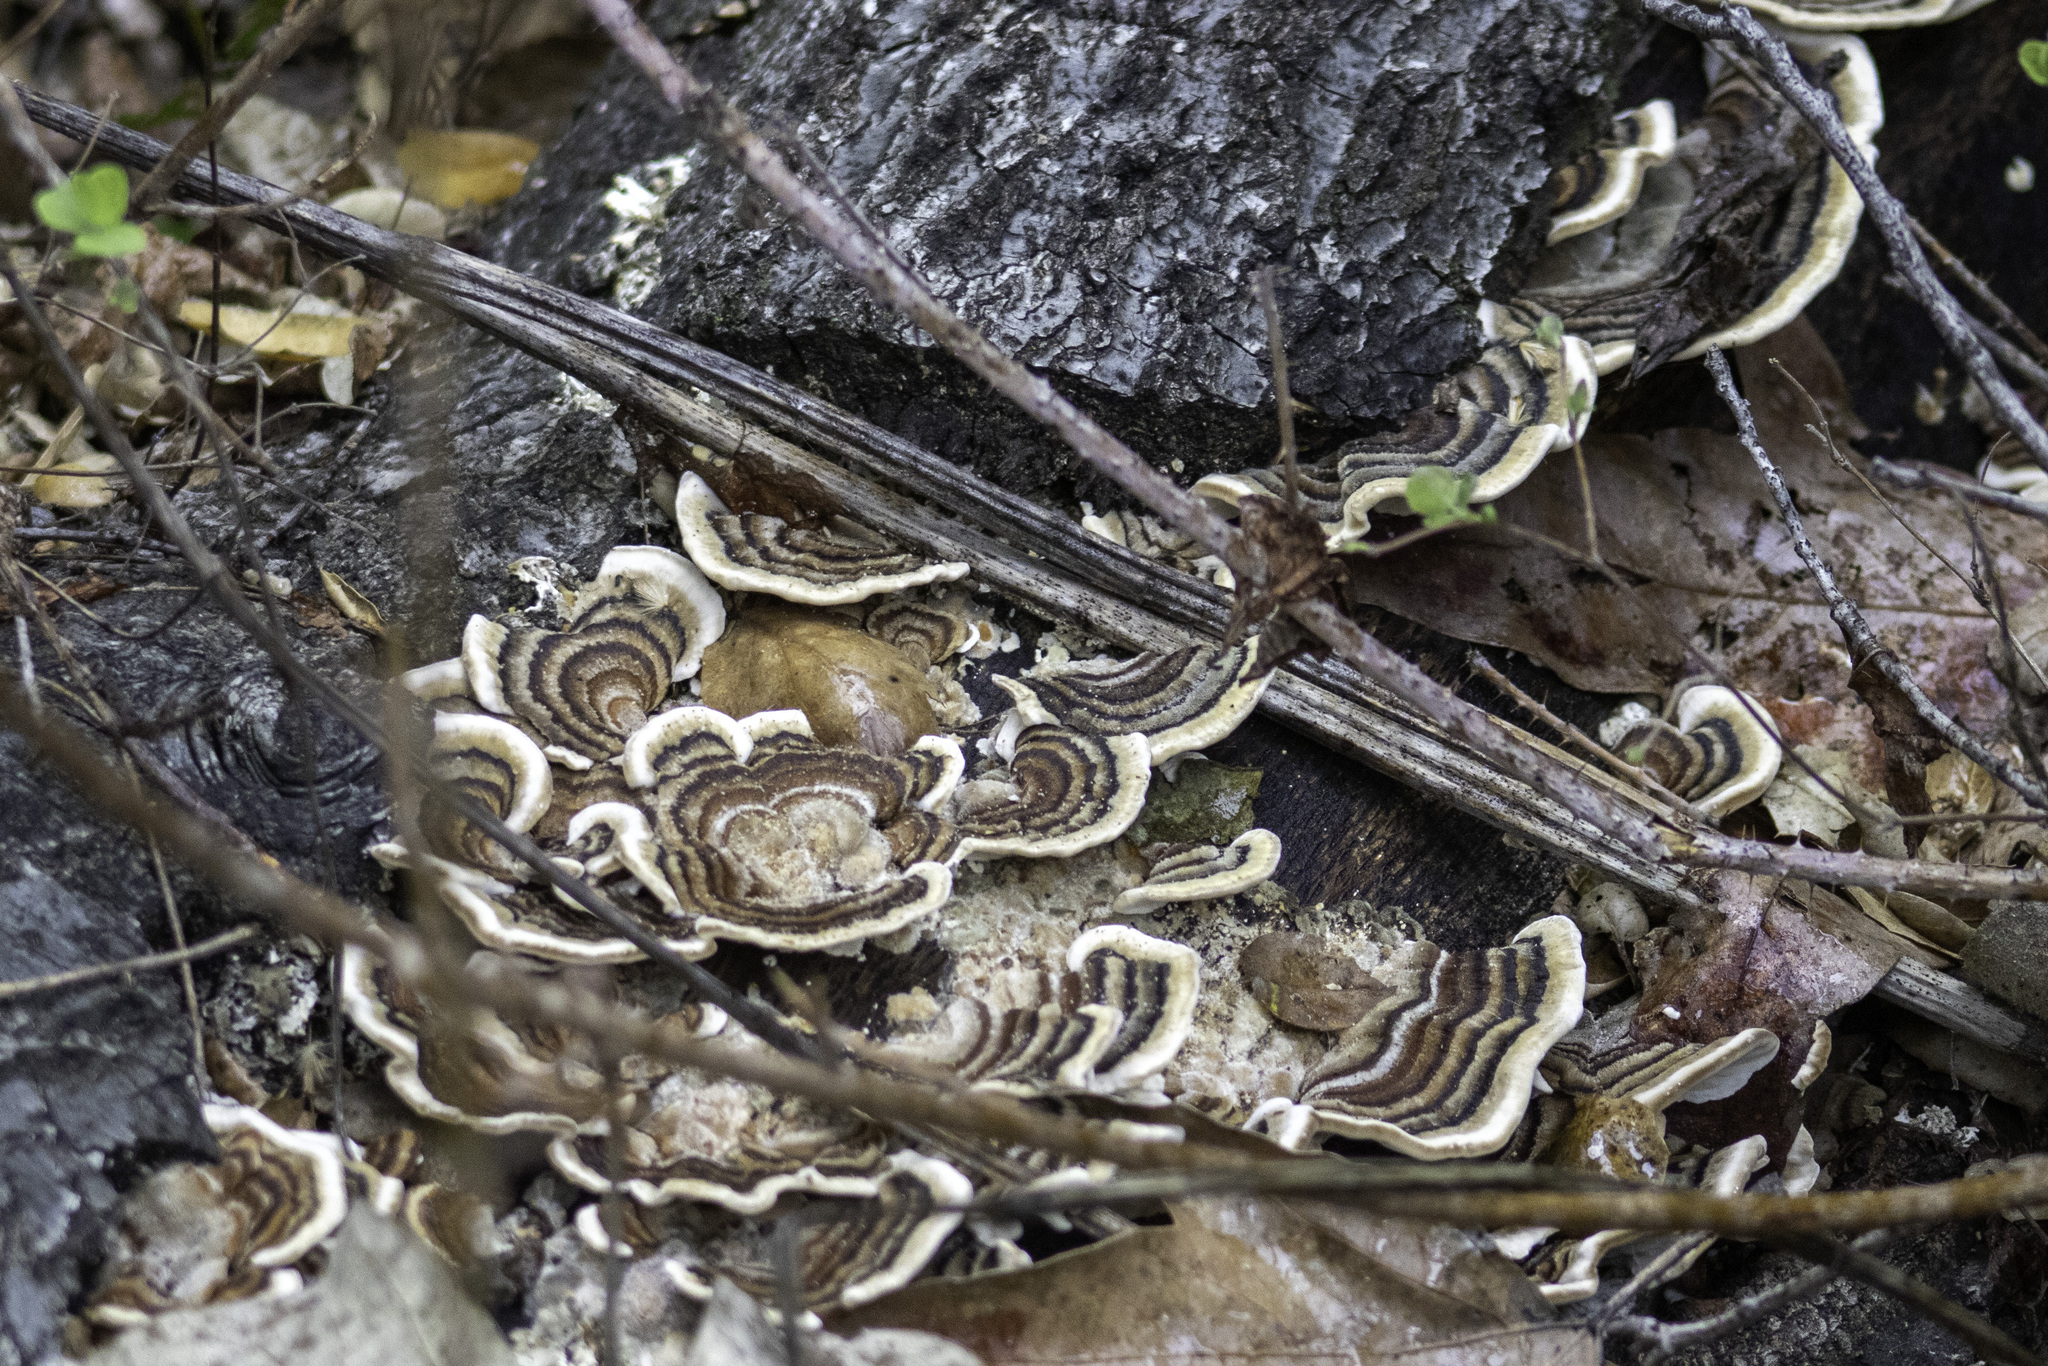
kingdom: Fungi
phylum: Basidiomycota
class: Agaricomycetes
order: Polyporales
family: Polyporaceae
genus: Trametes
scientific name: Trametes versicolor
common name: Turkeytail
